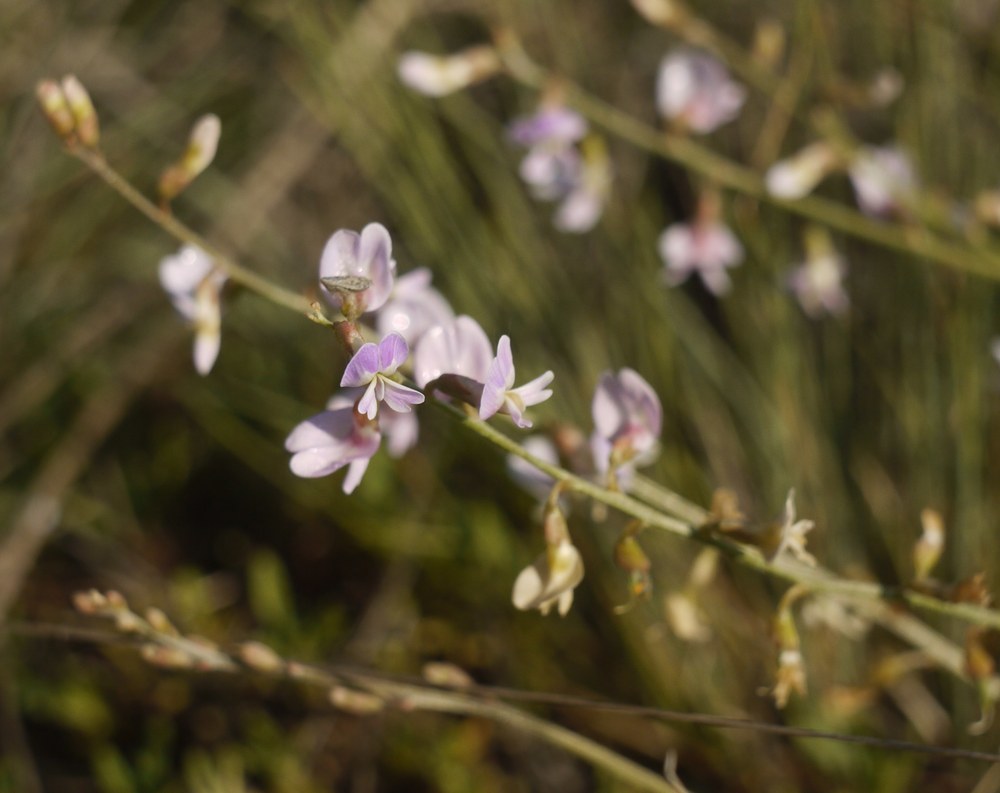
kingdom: Plantae
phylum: Tracheophyta
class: Magnoliopsida
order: Fabales
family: Fabaceae
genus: Astragalus
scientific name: Astragalus austriacus
